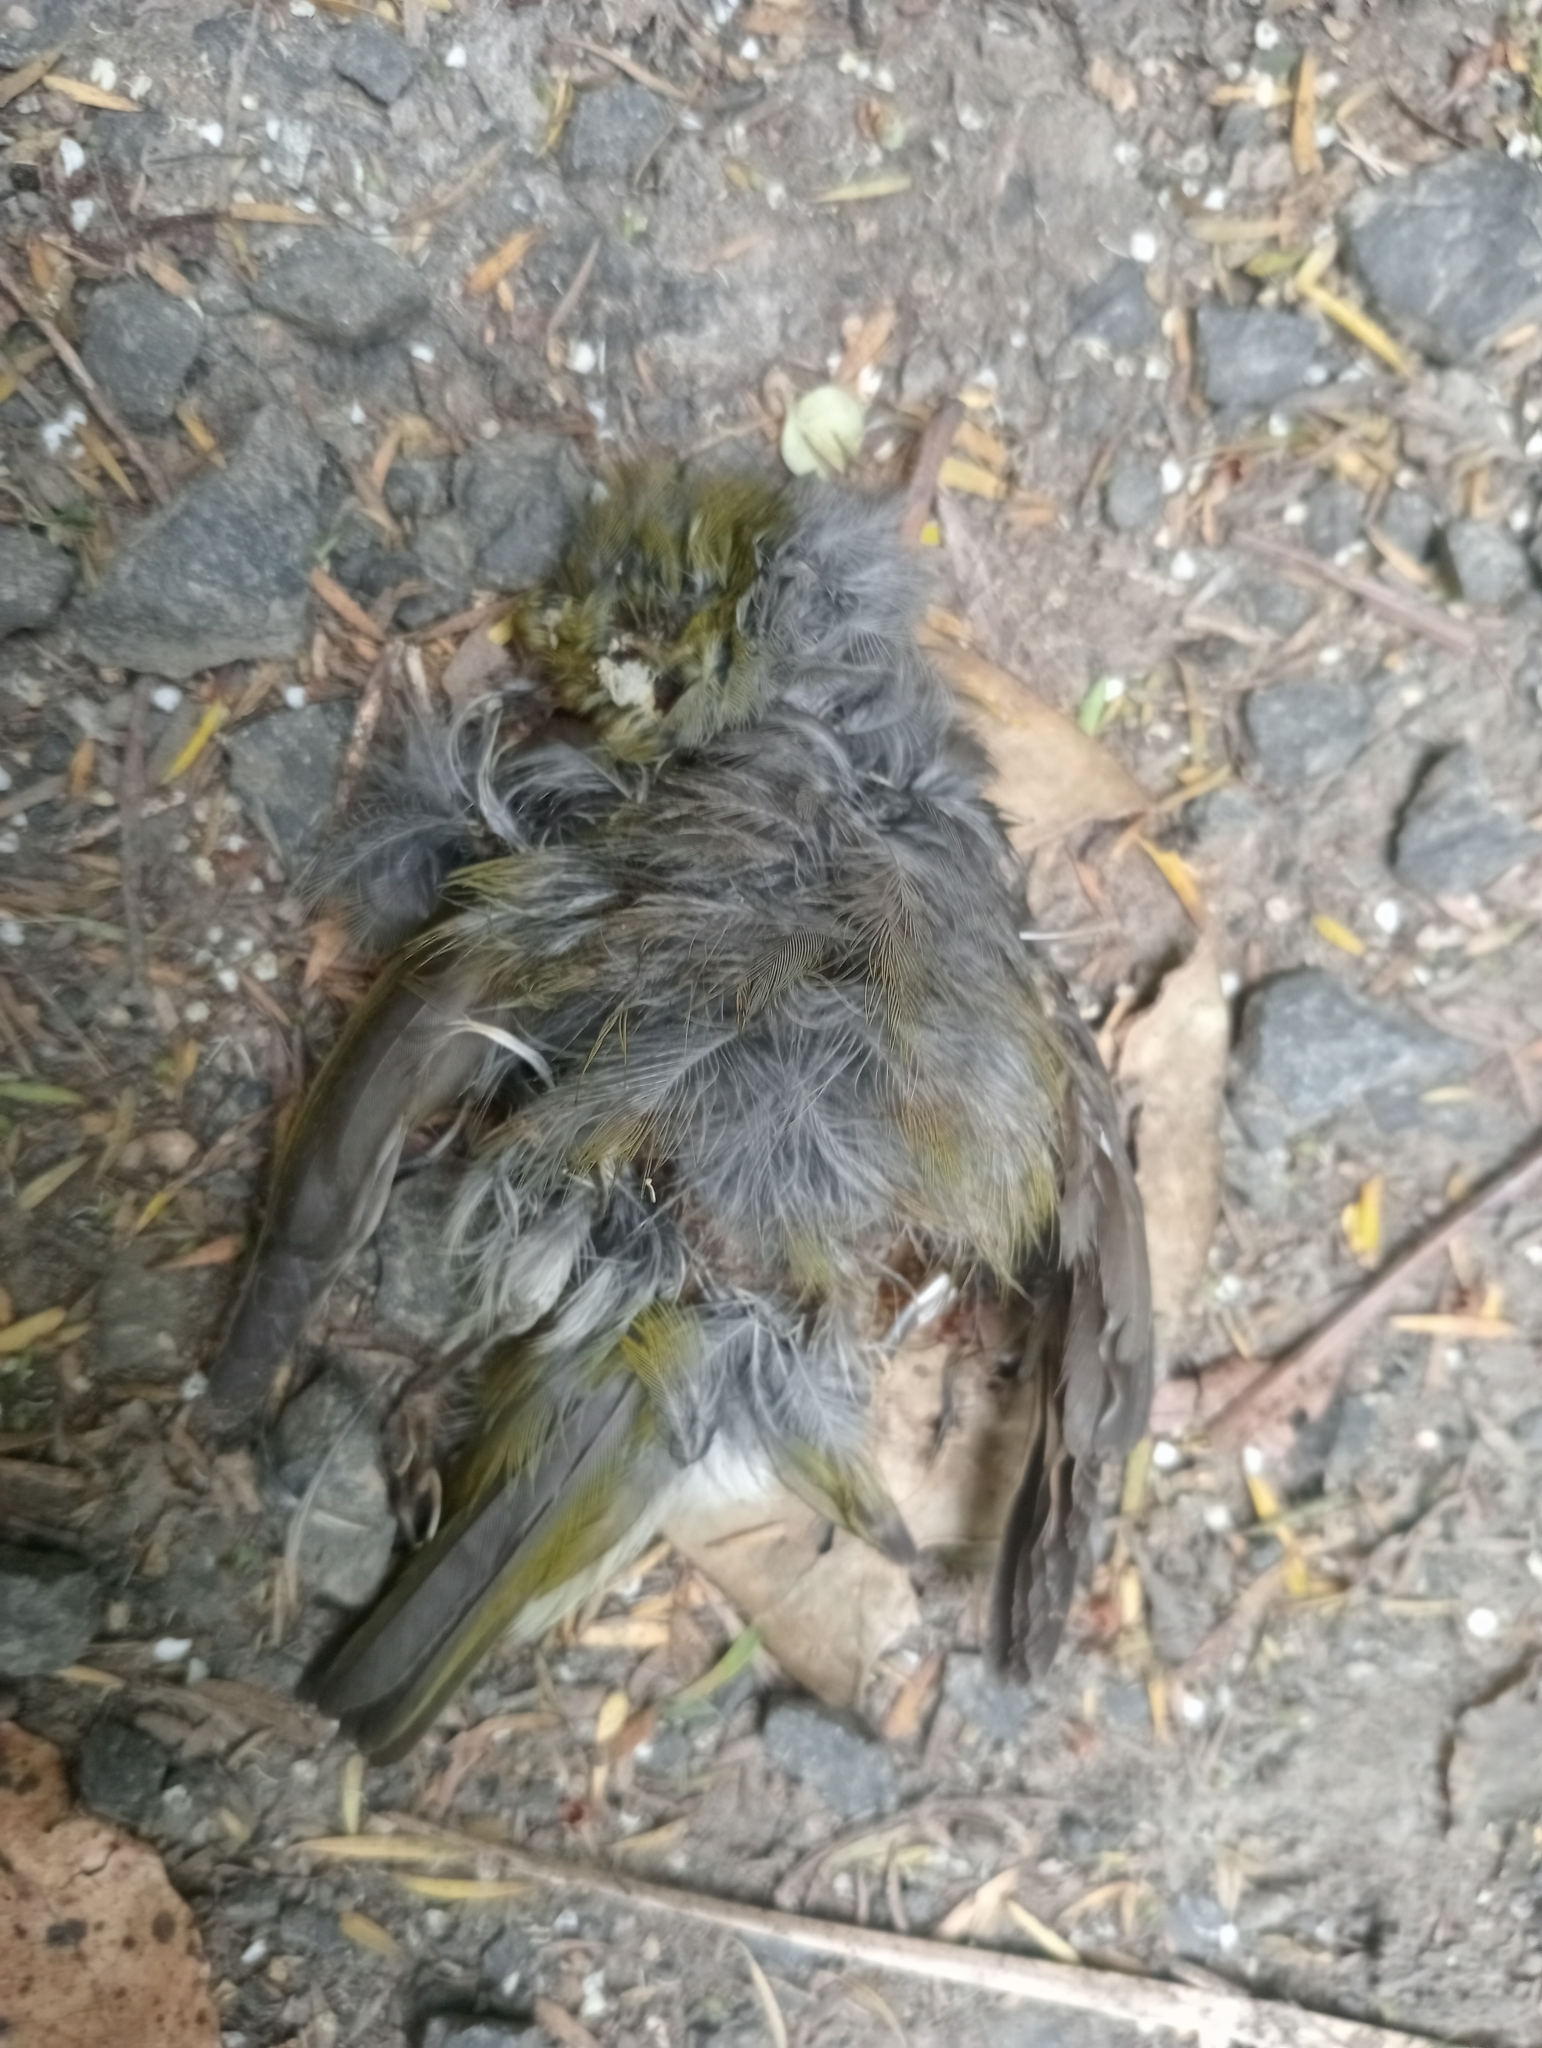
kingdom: Animalia
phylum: Chordata
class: Aves
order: Passeriformes
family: Zosteropidae
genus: Zosterops
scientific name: Zosterops lateralis
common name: Silvereye
